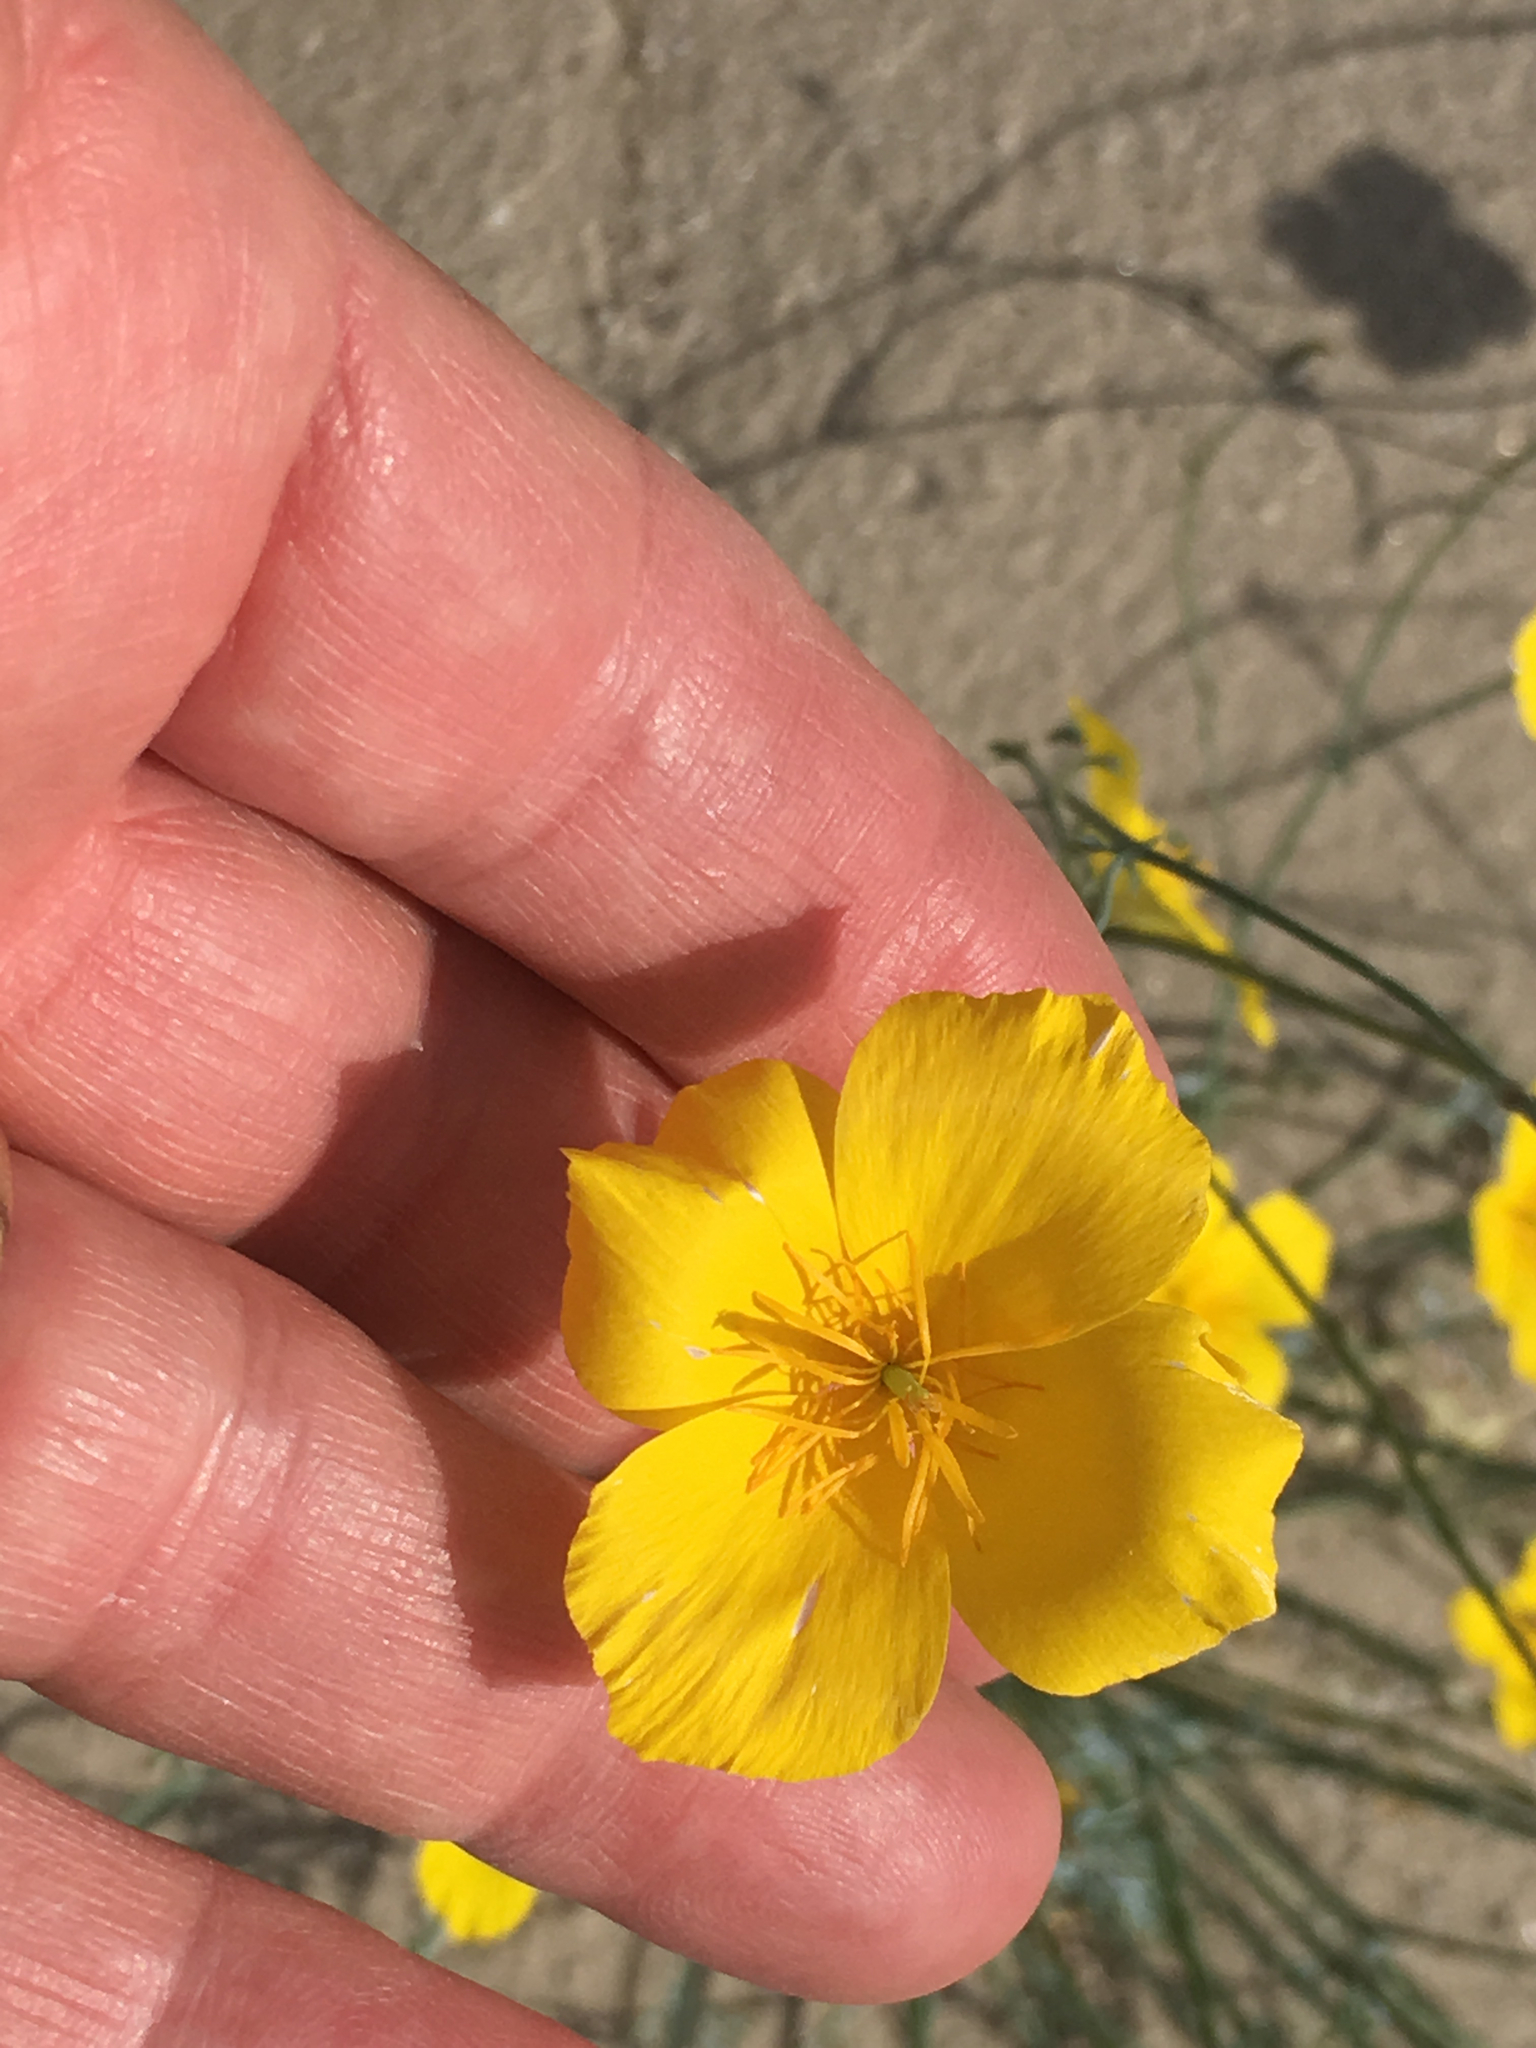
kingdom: Plantae
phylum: Tracheophyta
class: Magnoliopsida
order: Ranunculales
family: Papaveraceae
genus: Eschscholzia
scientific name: Eschscholzia parishii
